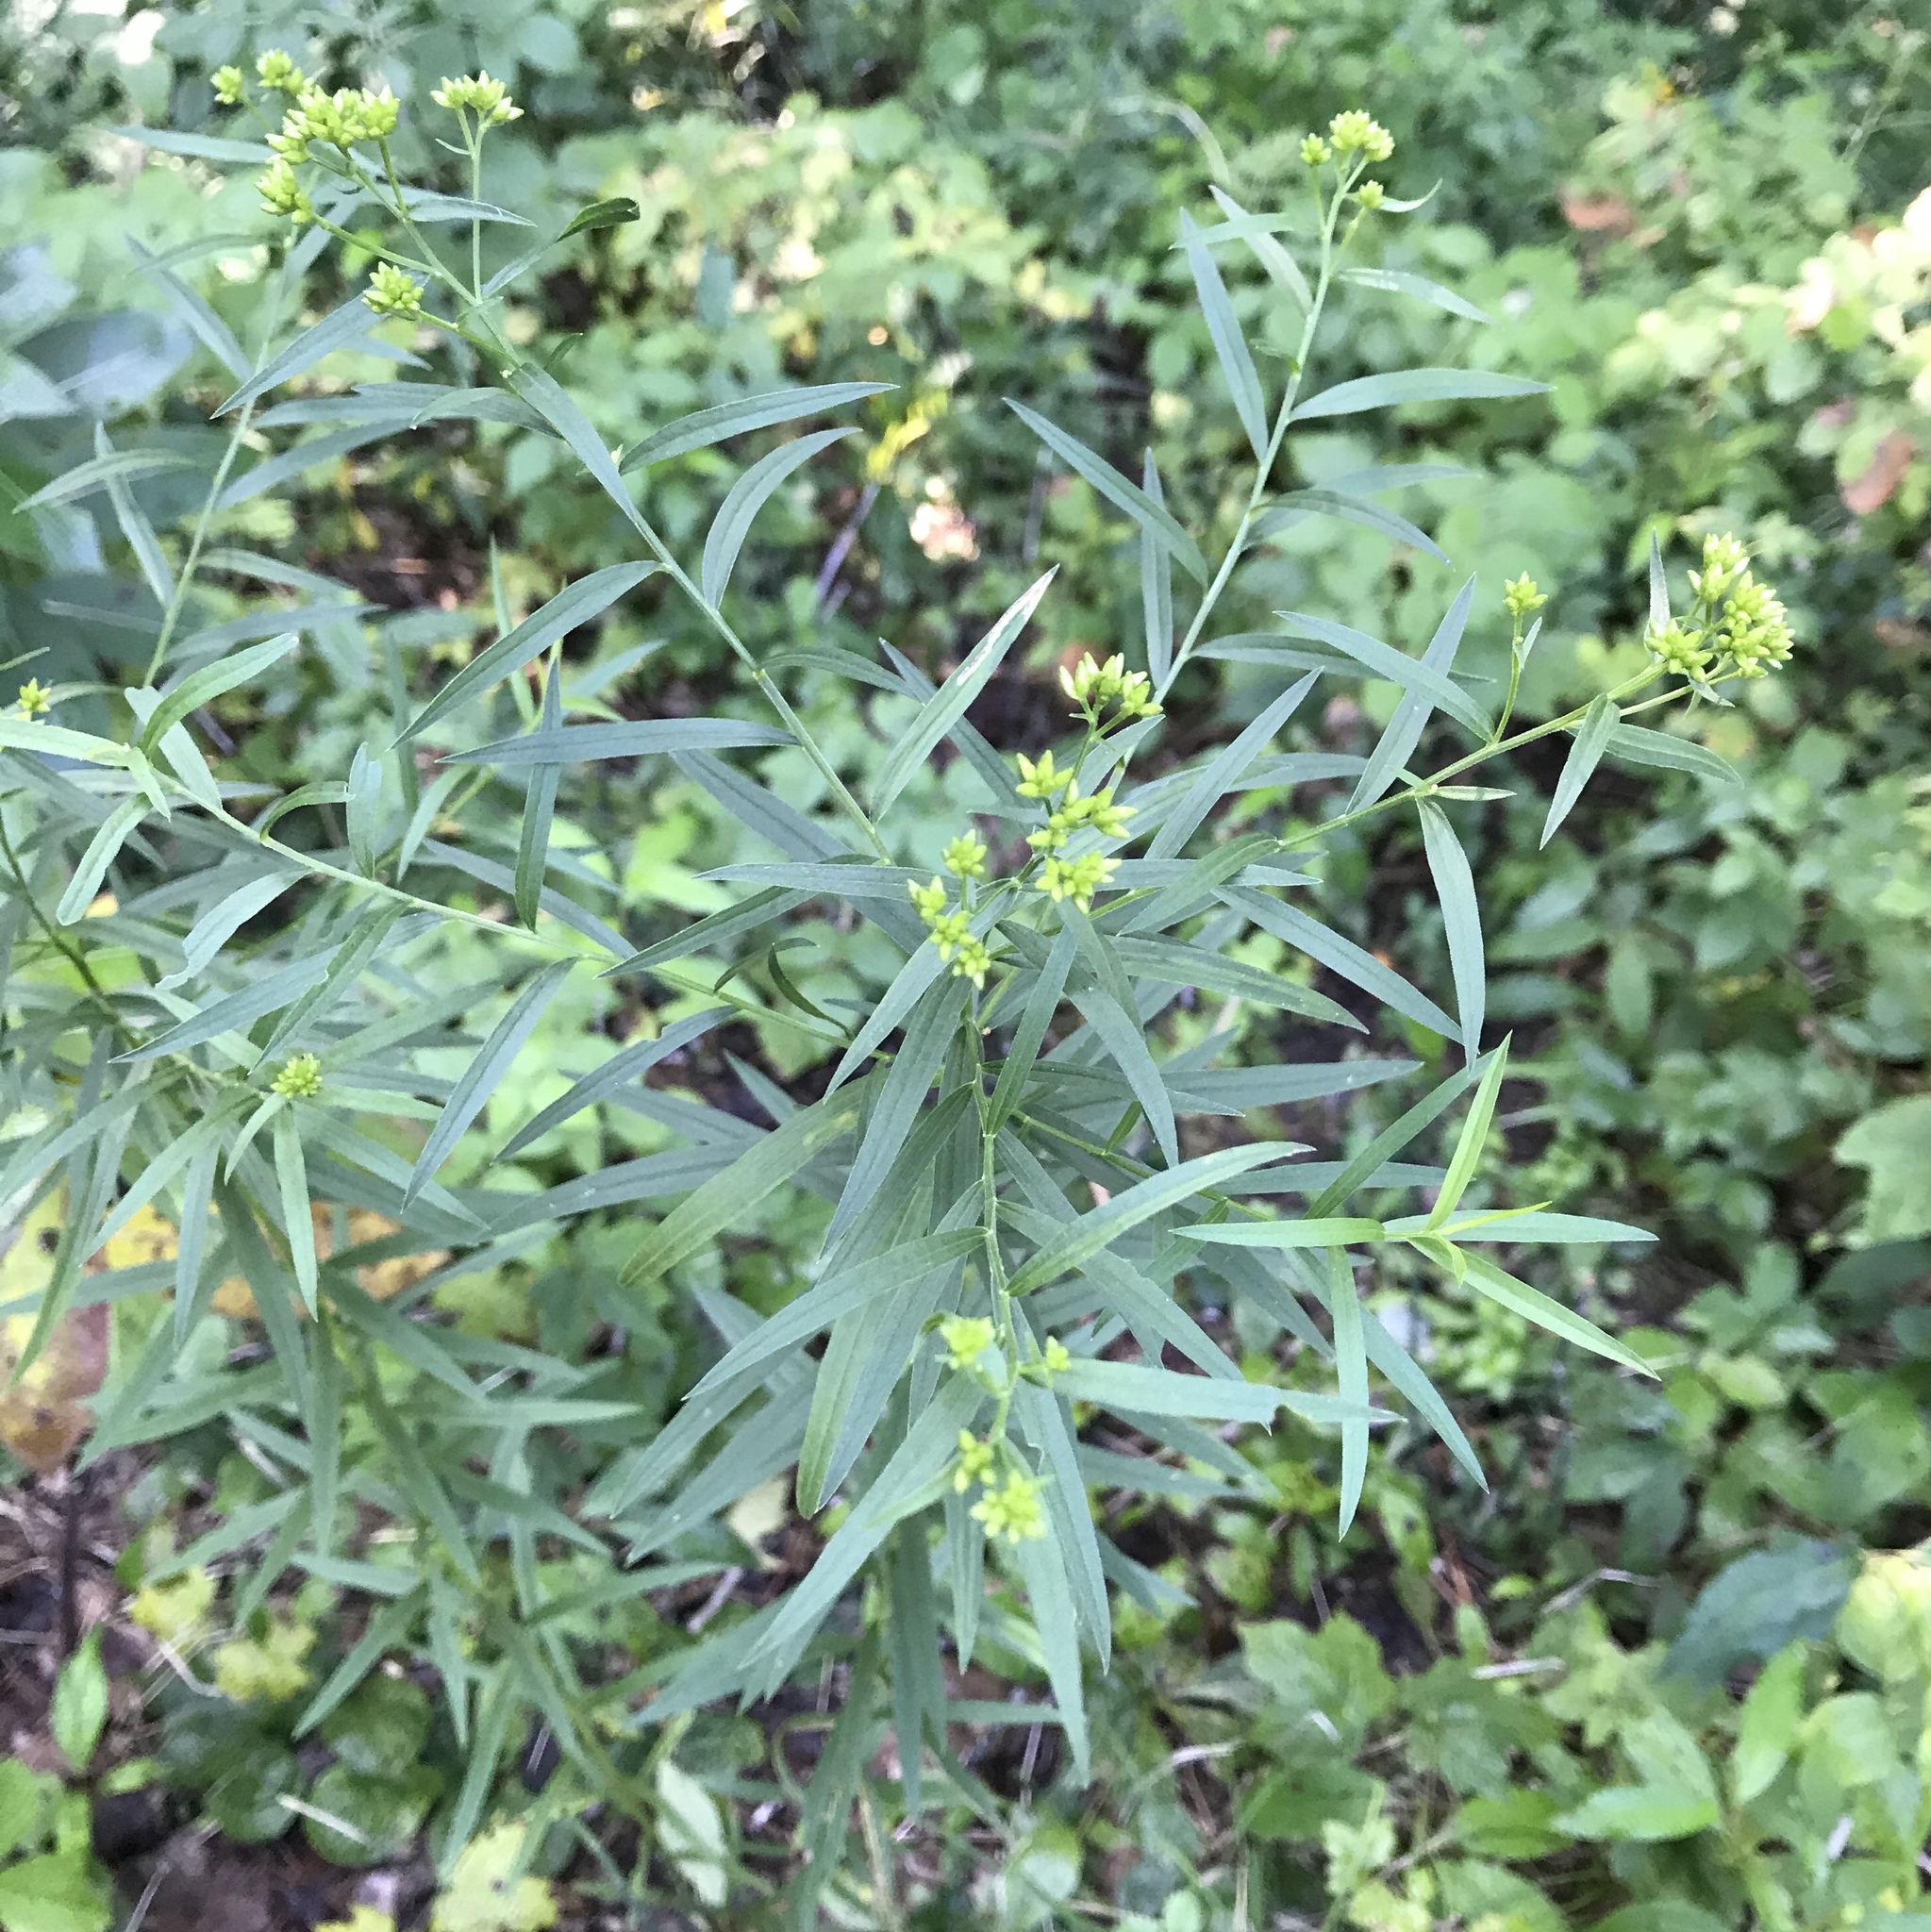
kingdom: Plantae
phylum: Tracheophyta
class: Magnoliopsida
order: Asterales
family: Asteraceae
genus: Euthamia
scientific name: Euthamia graminifolia
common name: Common goldentop
